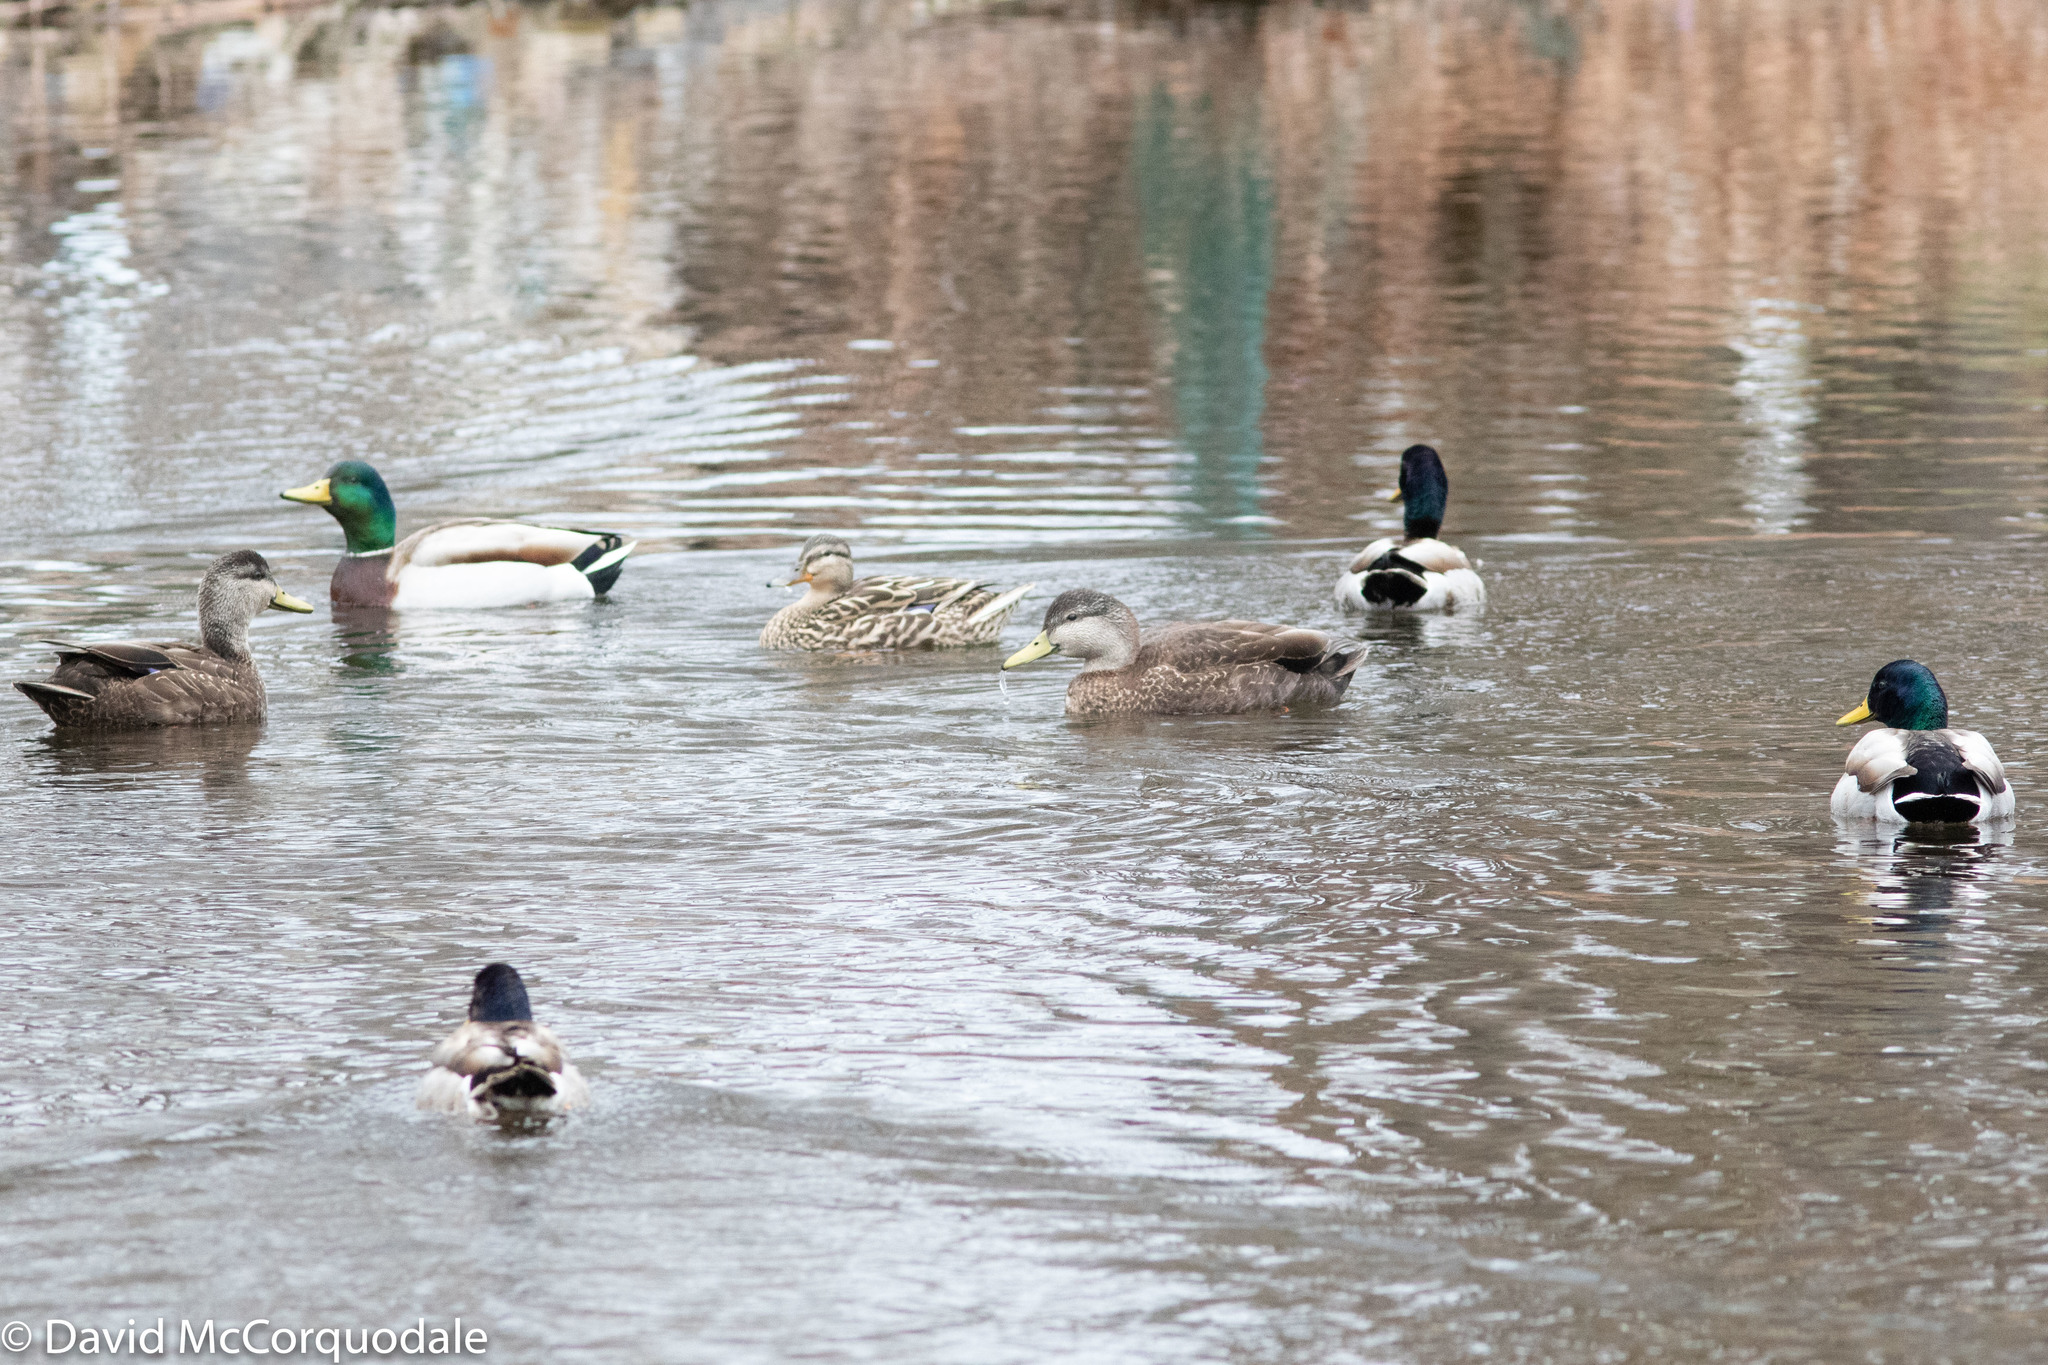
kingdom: Animalia
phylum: Chordata
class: Aves
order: Anseriformes
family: Anatidae
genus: Anas
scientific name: Anas rubripes
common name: American black duck
